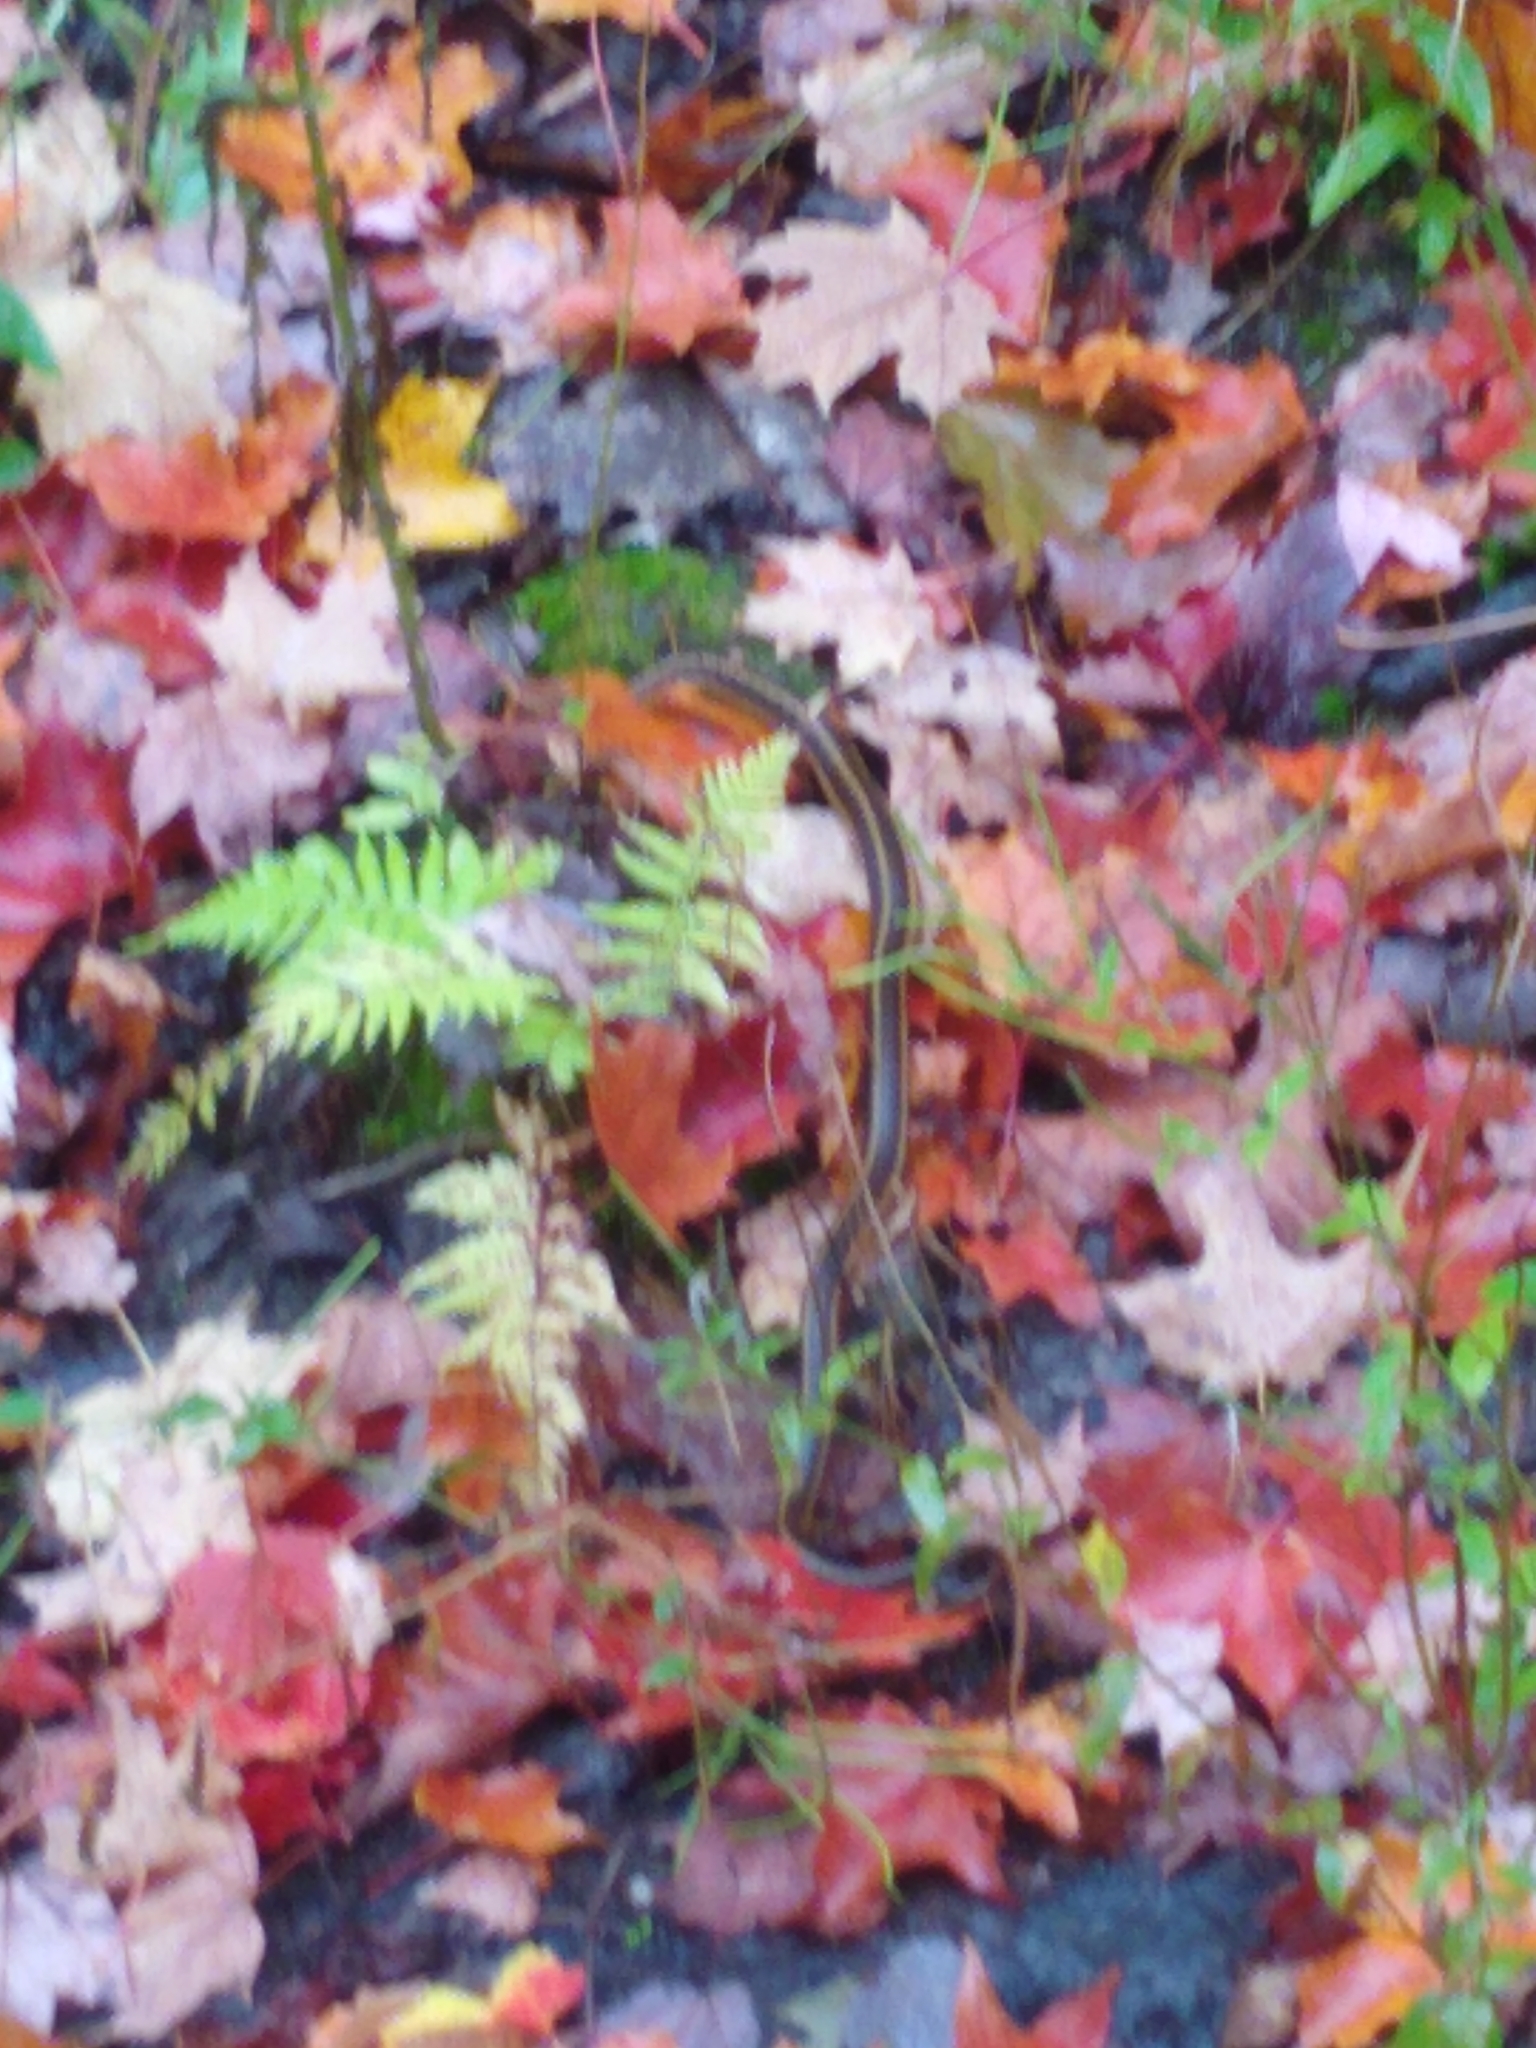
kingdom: Animalia
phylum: Chordata
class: Squamata
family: Colubridae
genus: Thamnophis
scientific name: Thamnophis sirtalis
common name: Common garter snake
